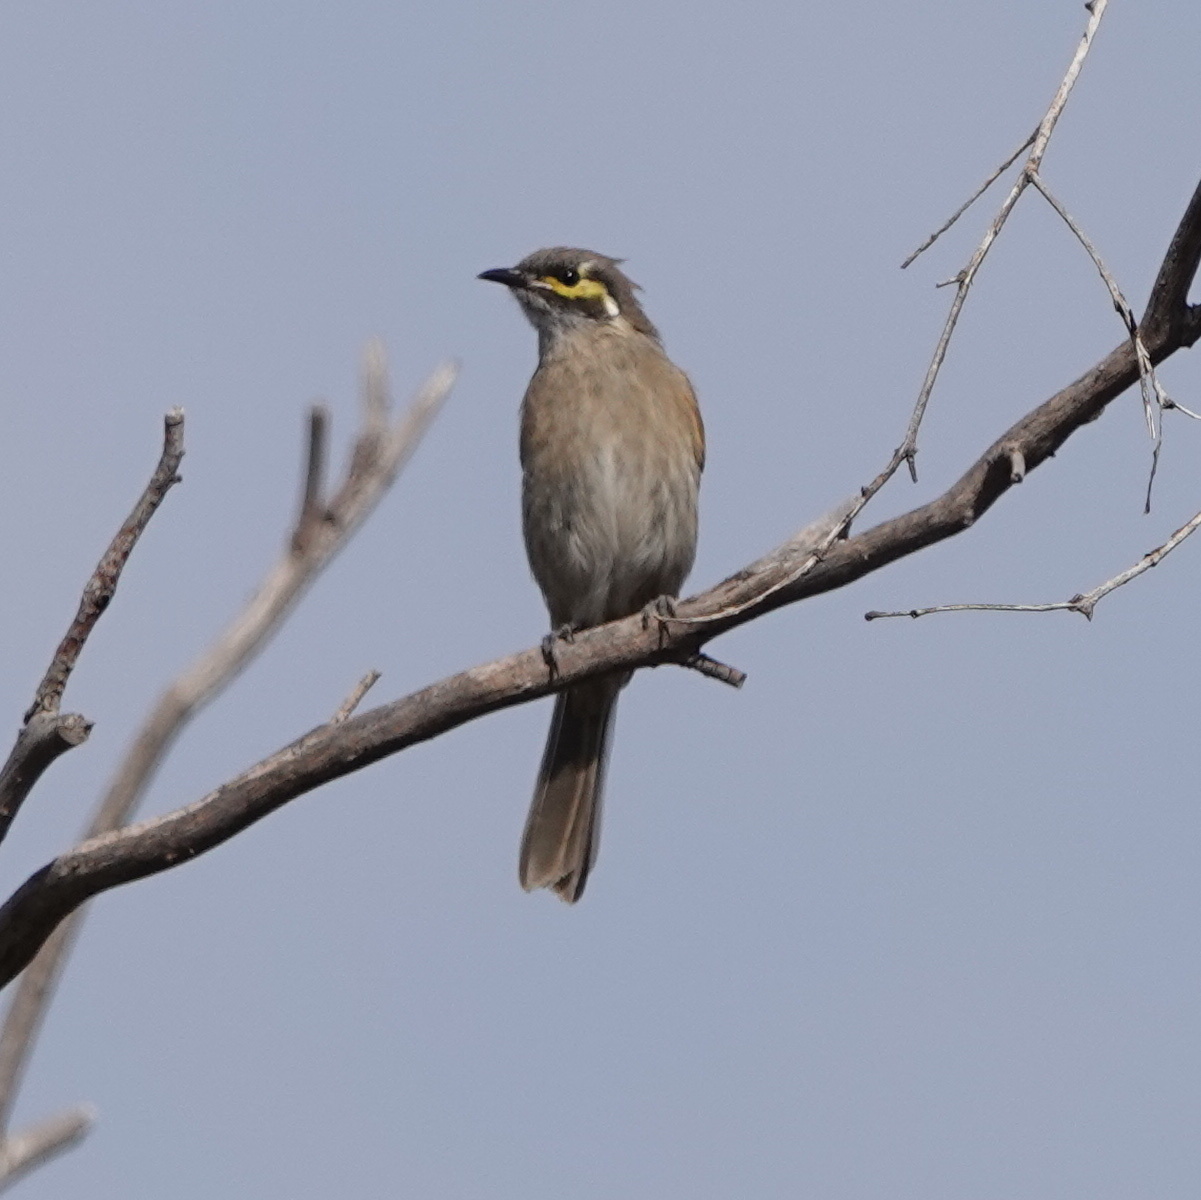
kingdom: Animalia
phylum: Chordata
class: Aves
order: Passeriformes
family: Meliphagidae
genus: Caligavis
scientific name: Caligavis chrysops
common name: Yellow-faced honeyeater
